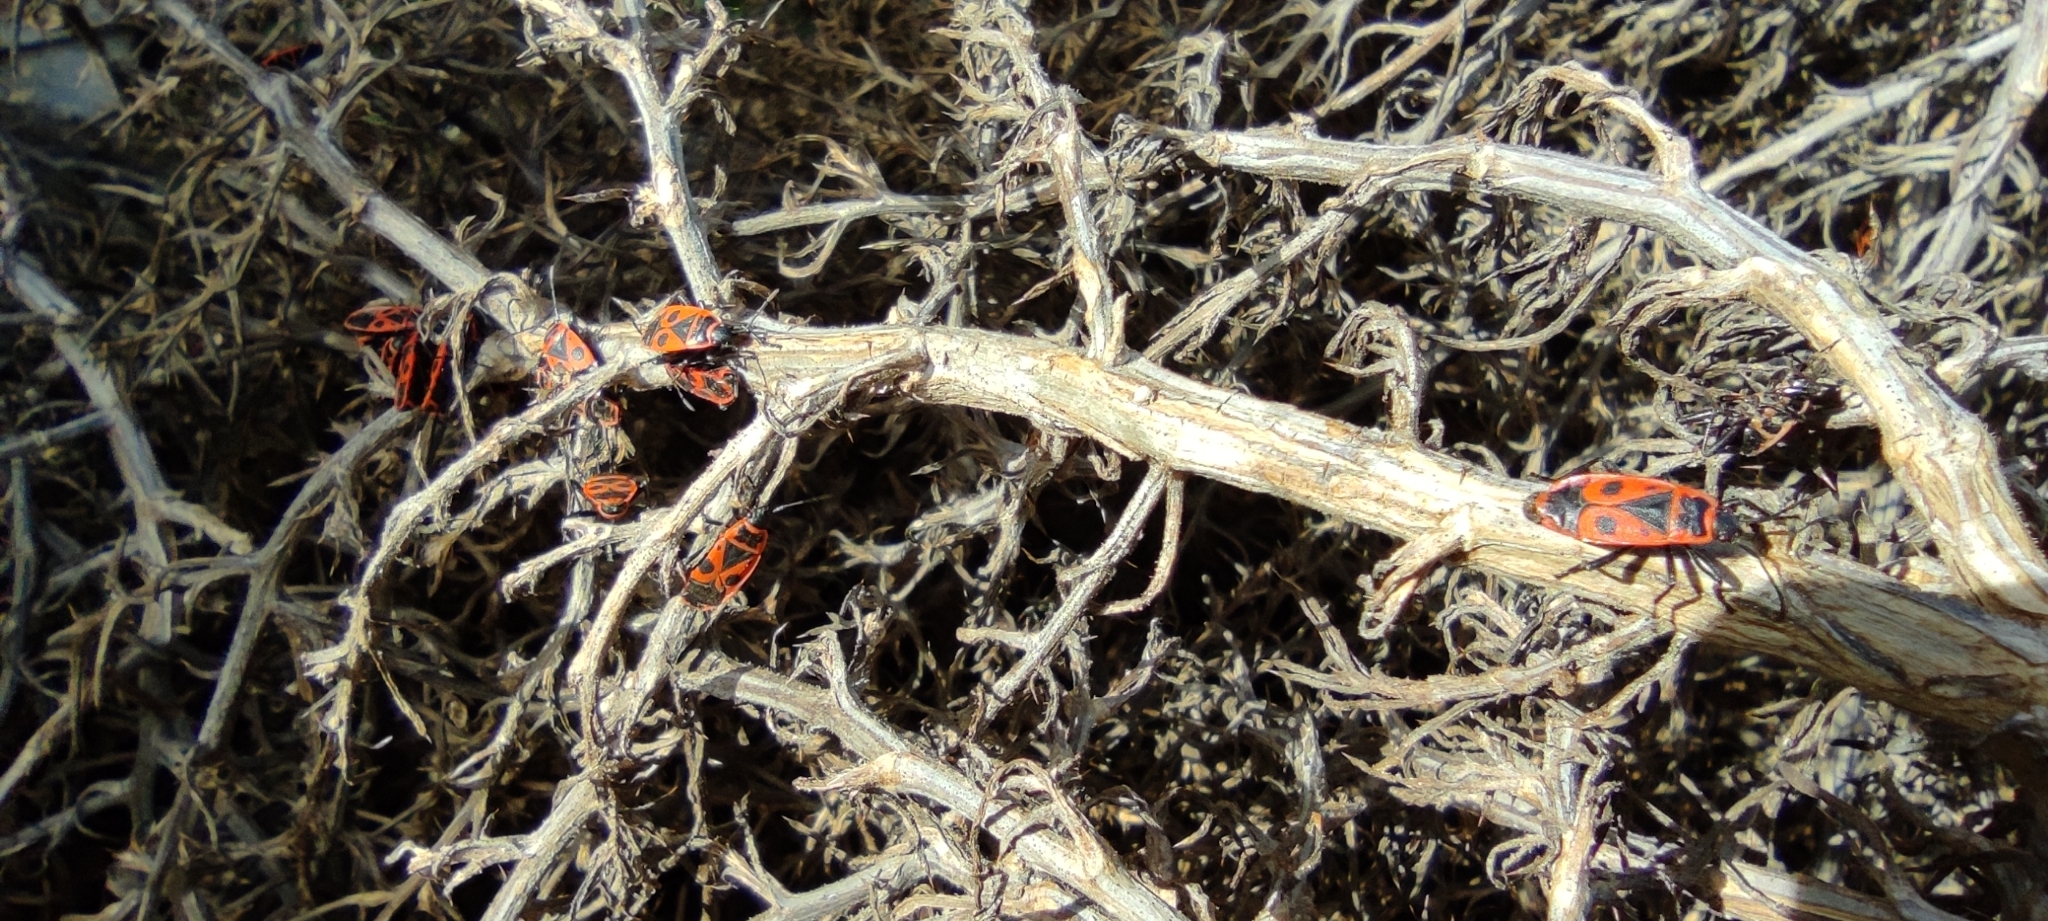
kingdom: Animalia
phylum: Arthropoda
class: Insecta
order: Hemiptera
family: Pyrrhocoridae
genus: Pyrrhocoris
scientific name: Pyrrhocoris apterus
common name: Firebug
